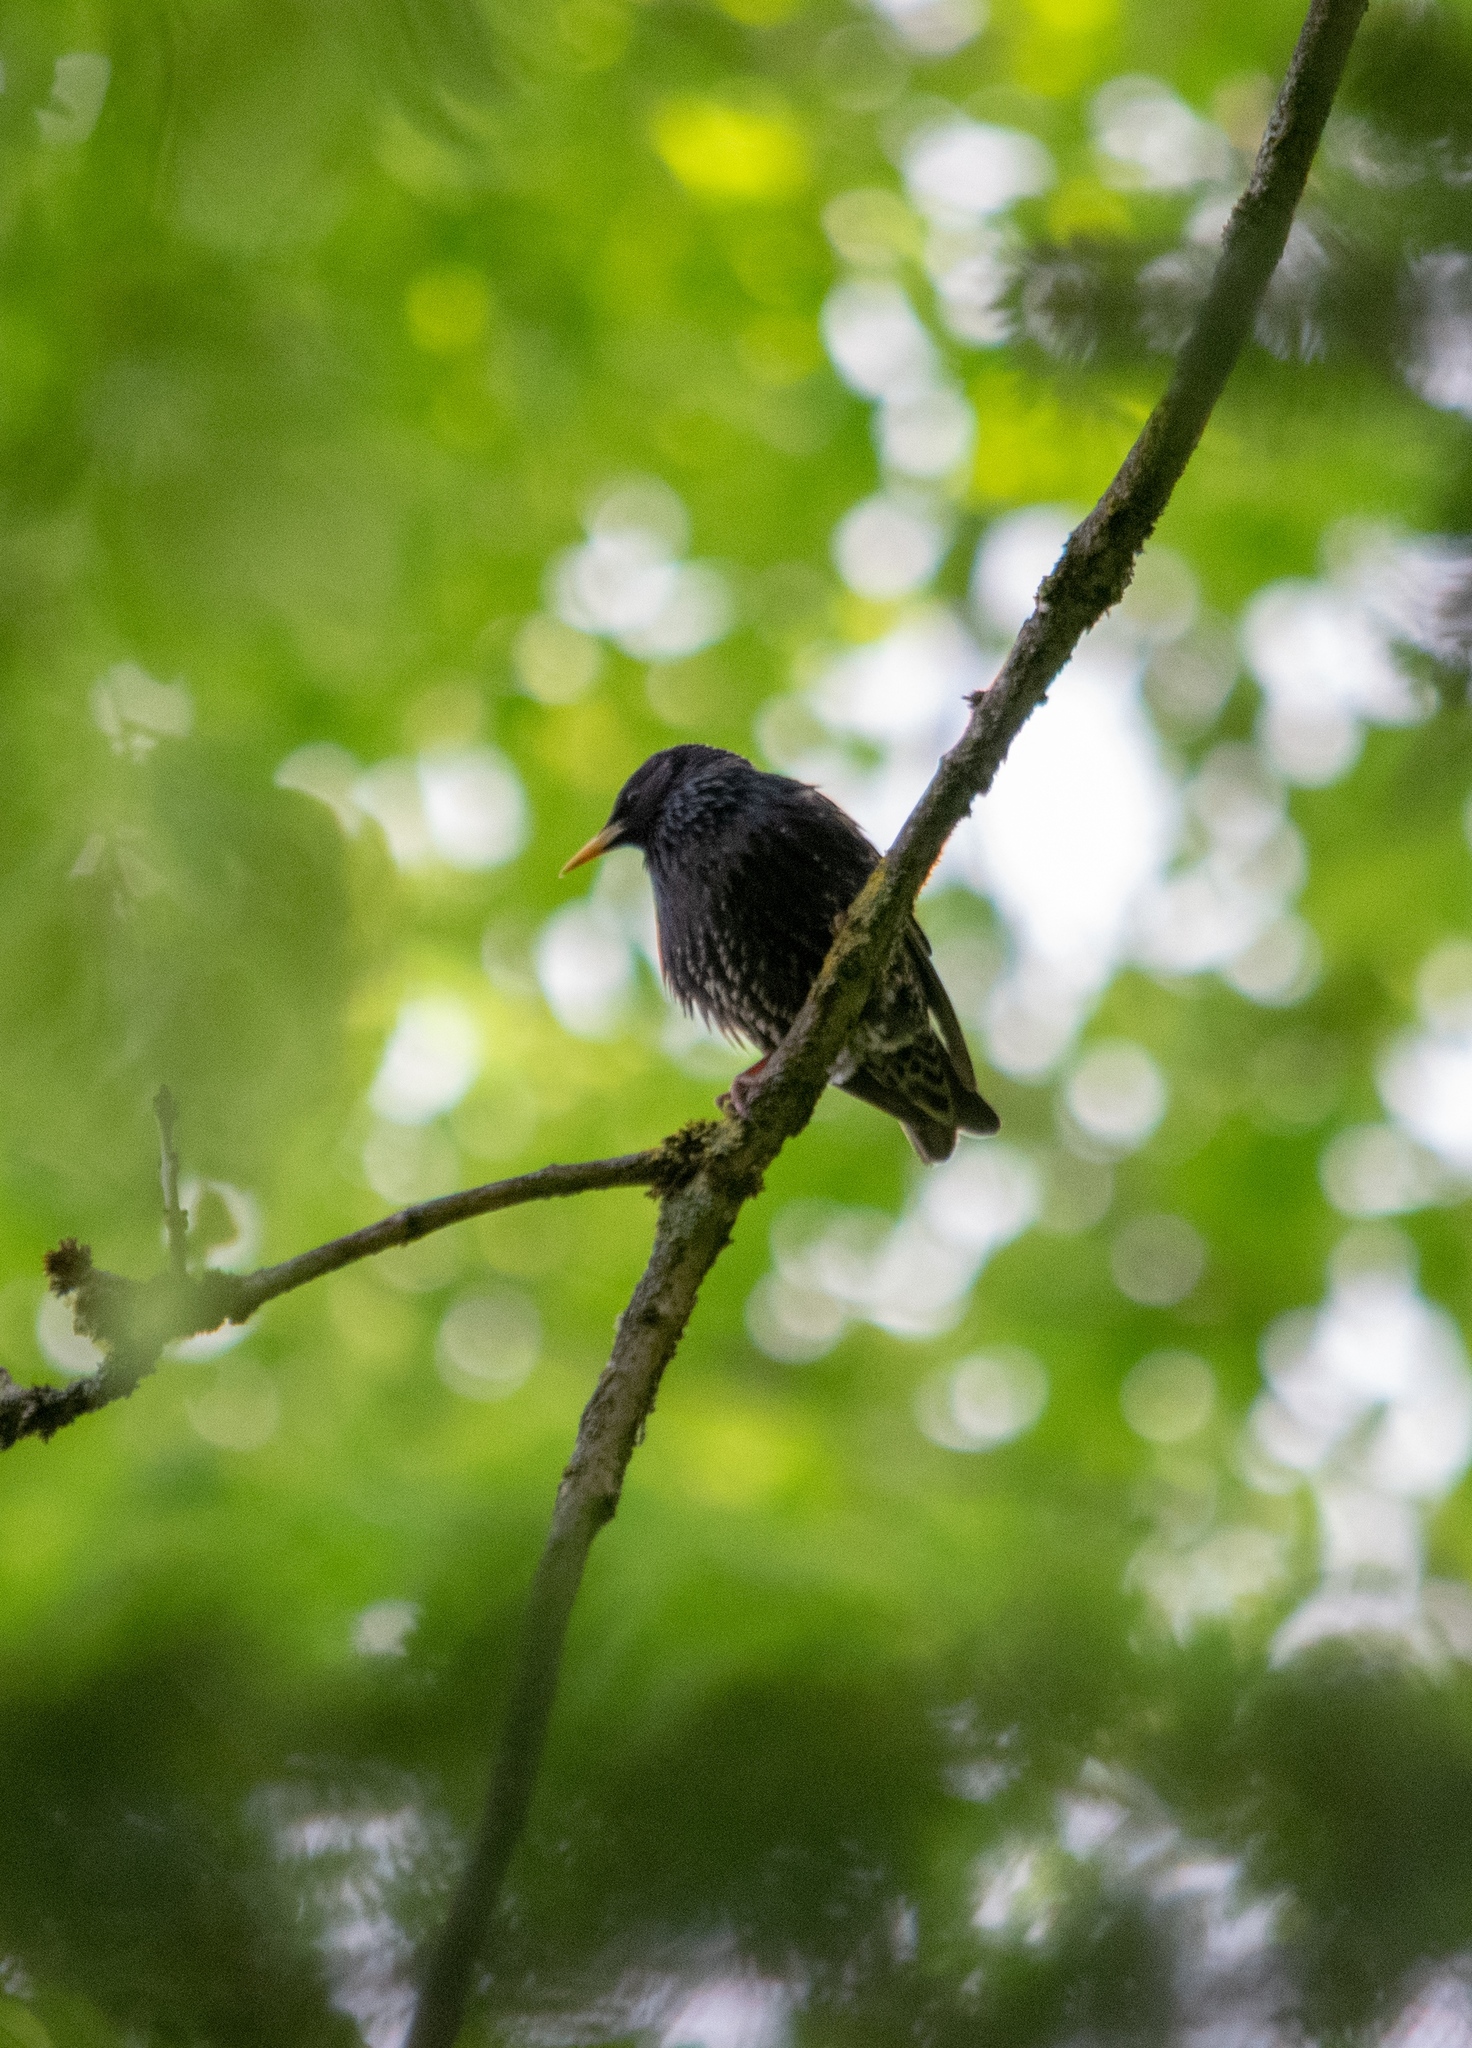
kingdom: Animalia
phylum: Chordata
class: Aves
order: Passeriformes
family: Sturnidae
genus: Sturnus
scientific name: Sturnus vulgaris
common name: Common starling
